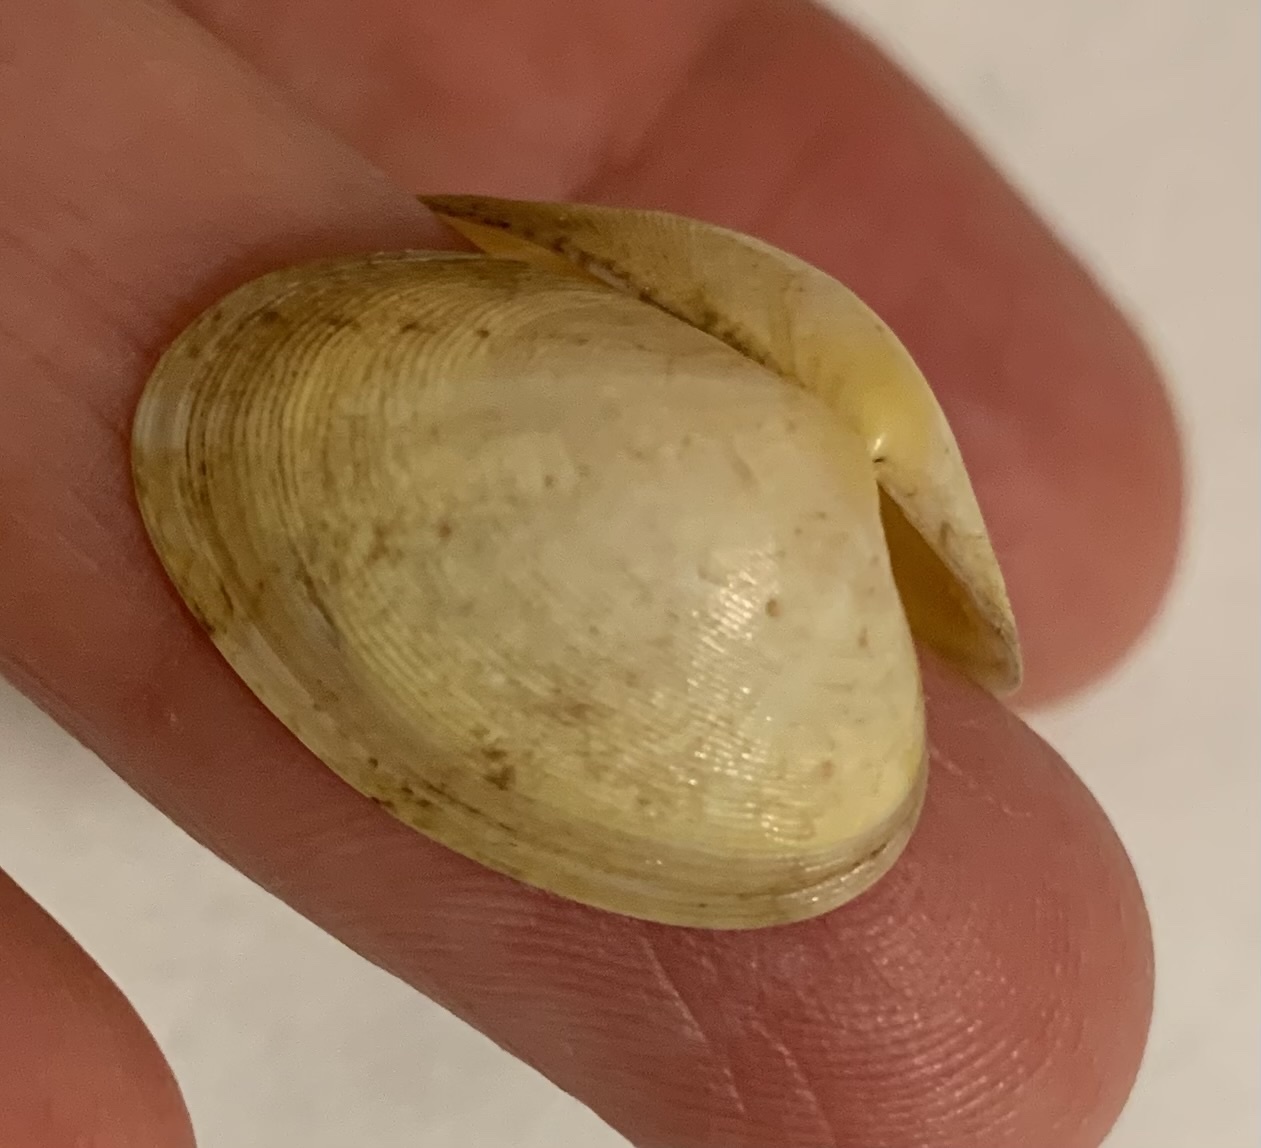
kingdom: Animalia
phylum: Mollusca
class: Bivalvia
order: Venerida
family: Veneridae
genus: Polititapes
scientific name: Polititapes aureus
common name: Golden carpet shell
